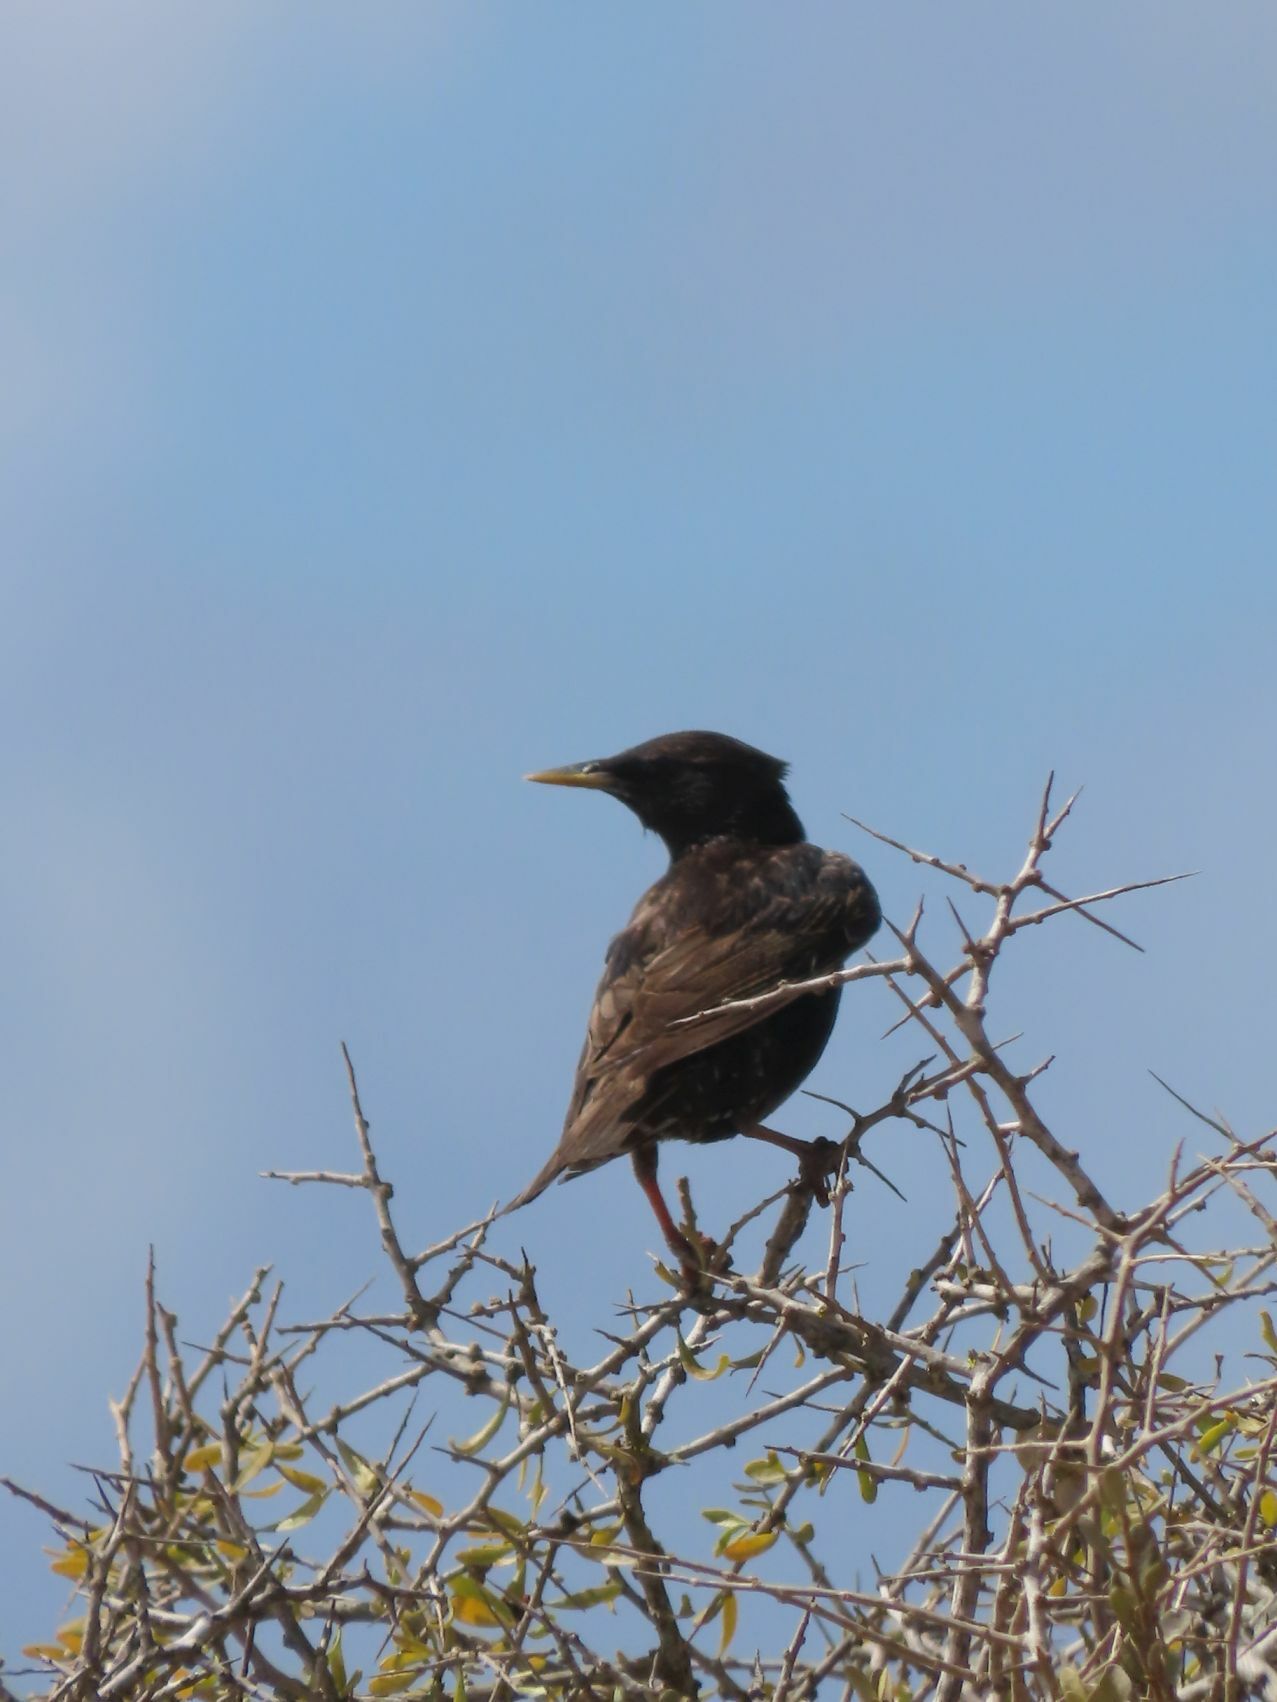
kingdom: Animalia
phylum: Chordata
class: Aves
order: Passeriformes
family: Sturnidae
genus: Sturnus
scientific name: Sturnus vulgaris
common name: Common starling
